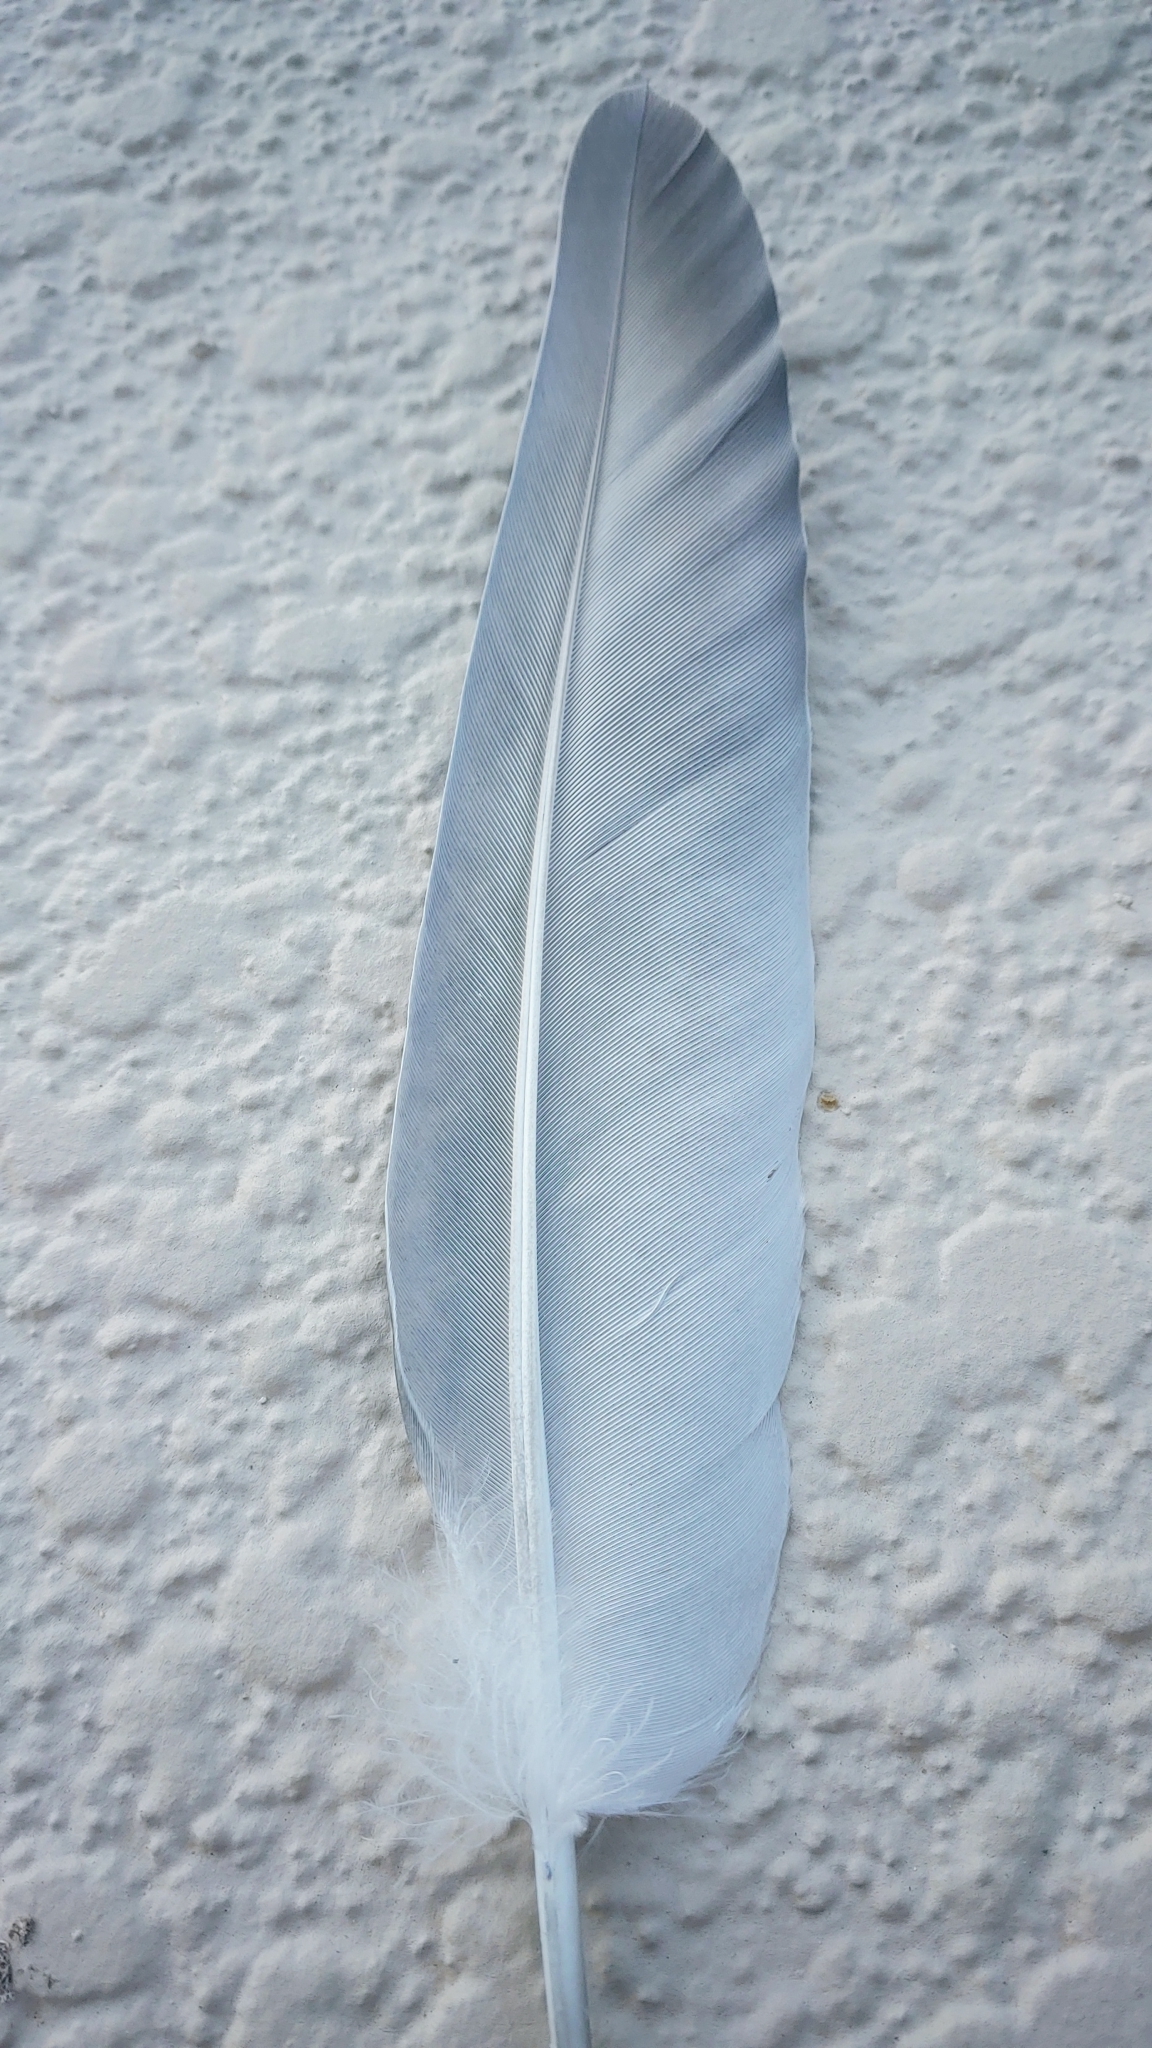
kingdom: Animalia
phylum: Chordata
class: Aves
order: Columbiformes
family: Columbidae
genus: Columba
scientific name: Columba livia
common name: Rock pigeon
